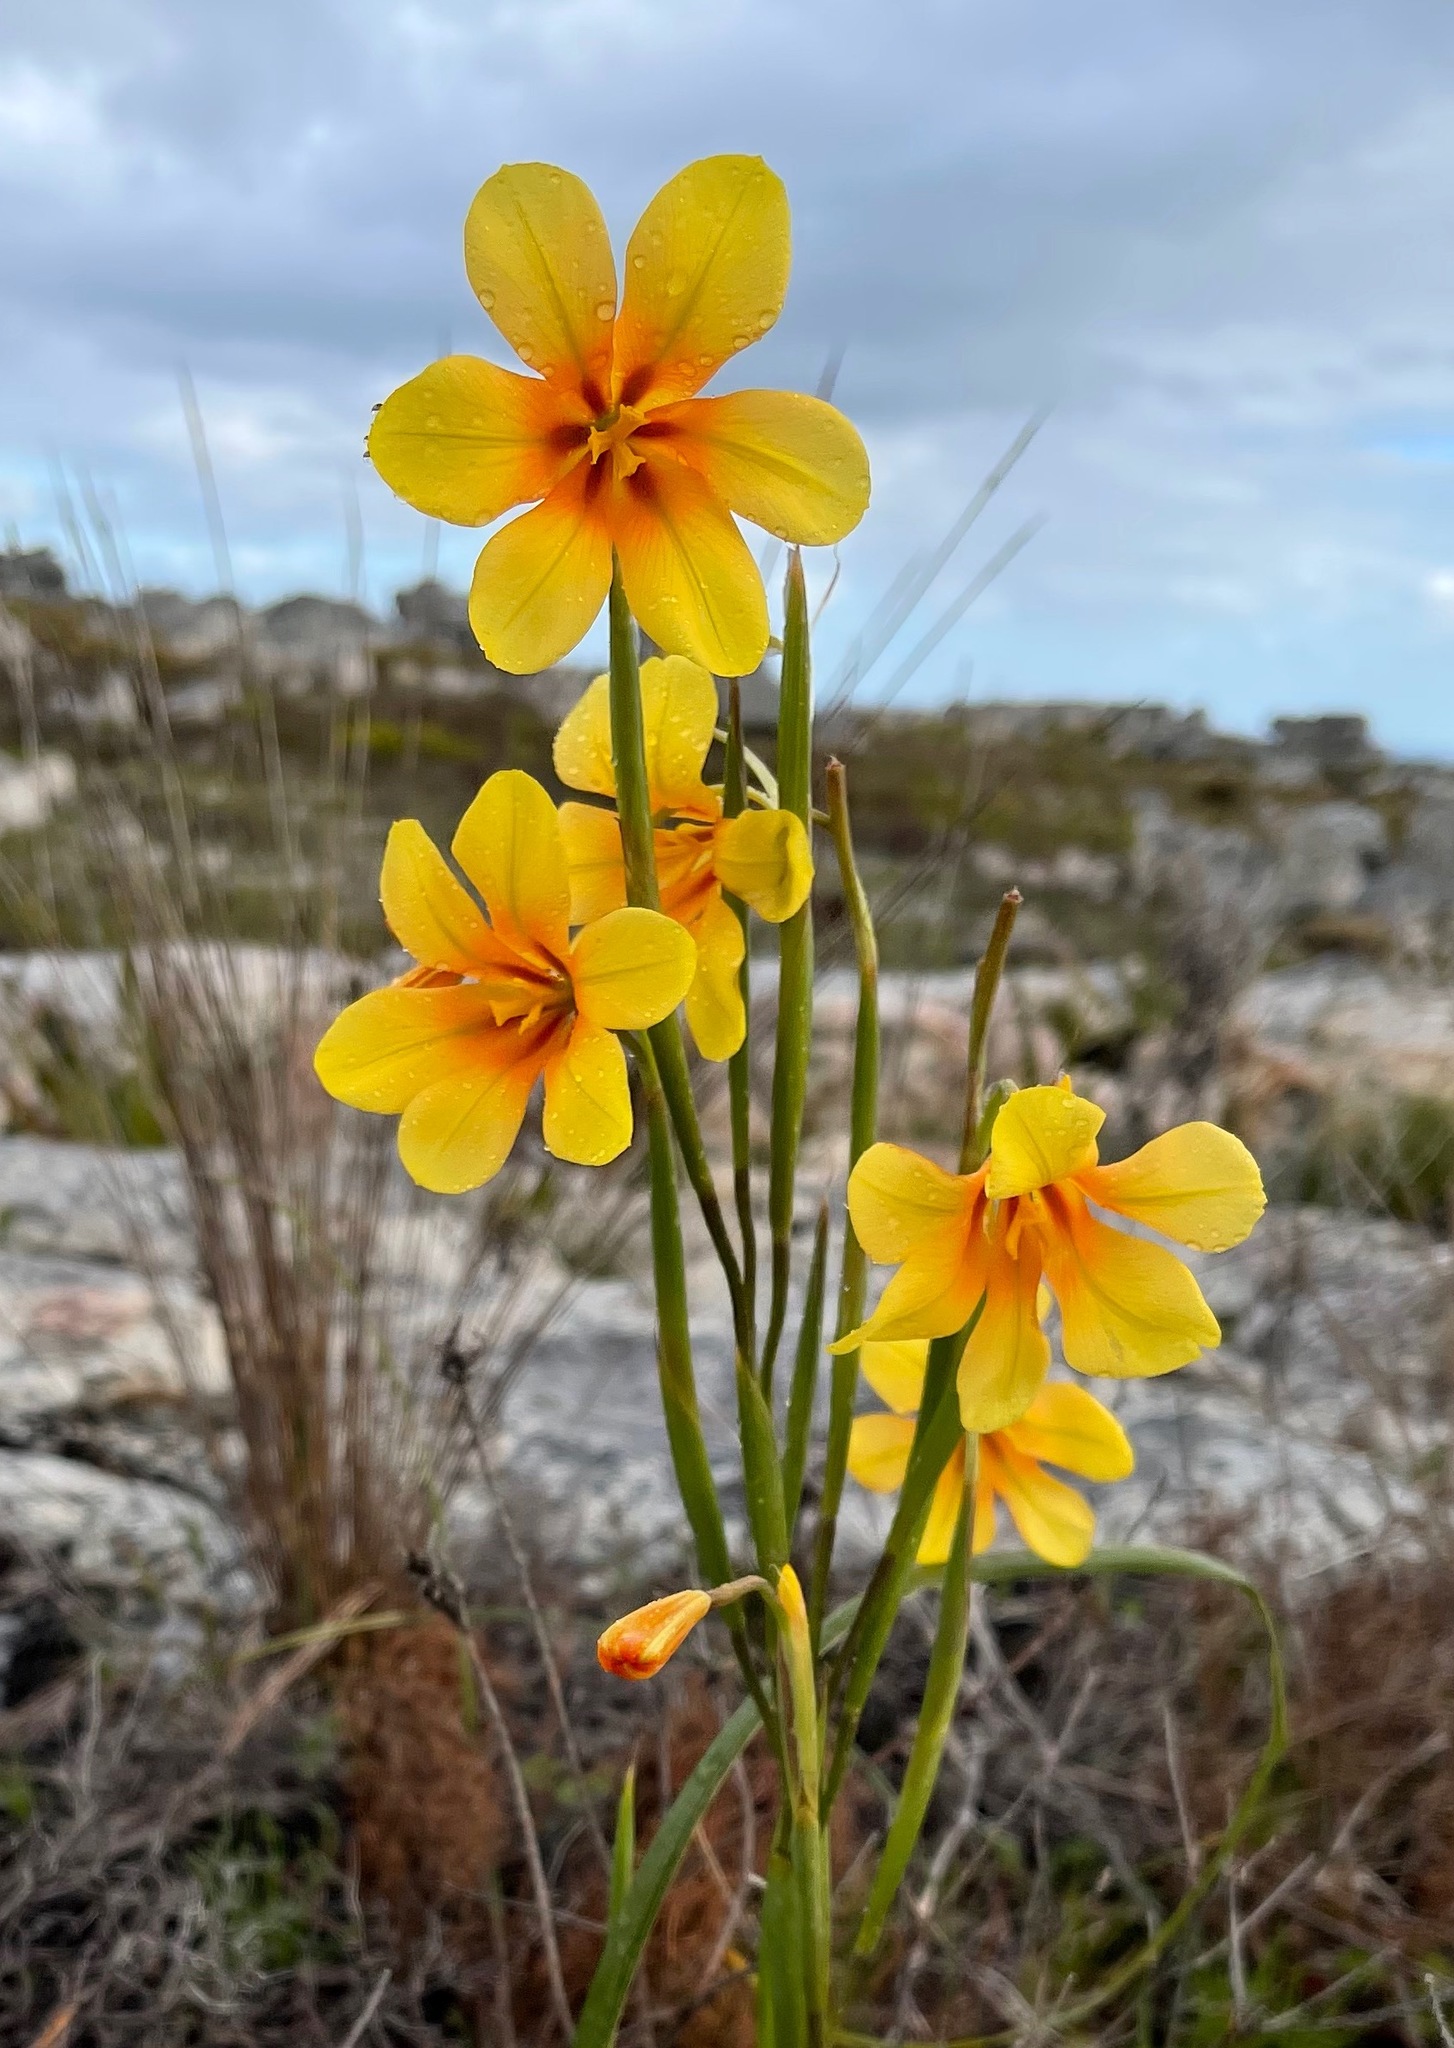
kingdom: Plantae
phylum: Tracheophyta
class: Liliopsida
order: Asparagales
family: Iridaceae
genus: Moraea
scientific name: Moraea ochroleuca
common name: Red tulp
